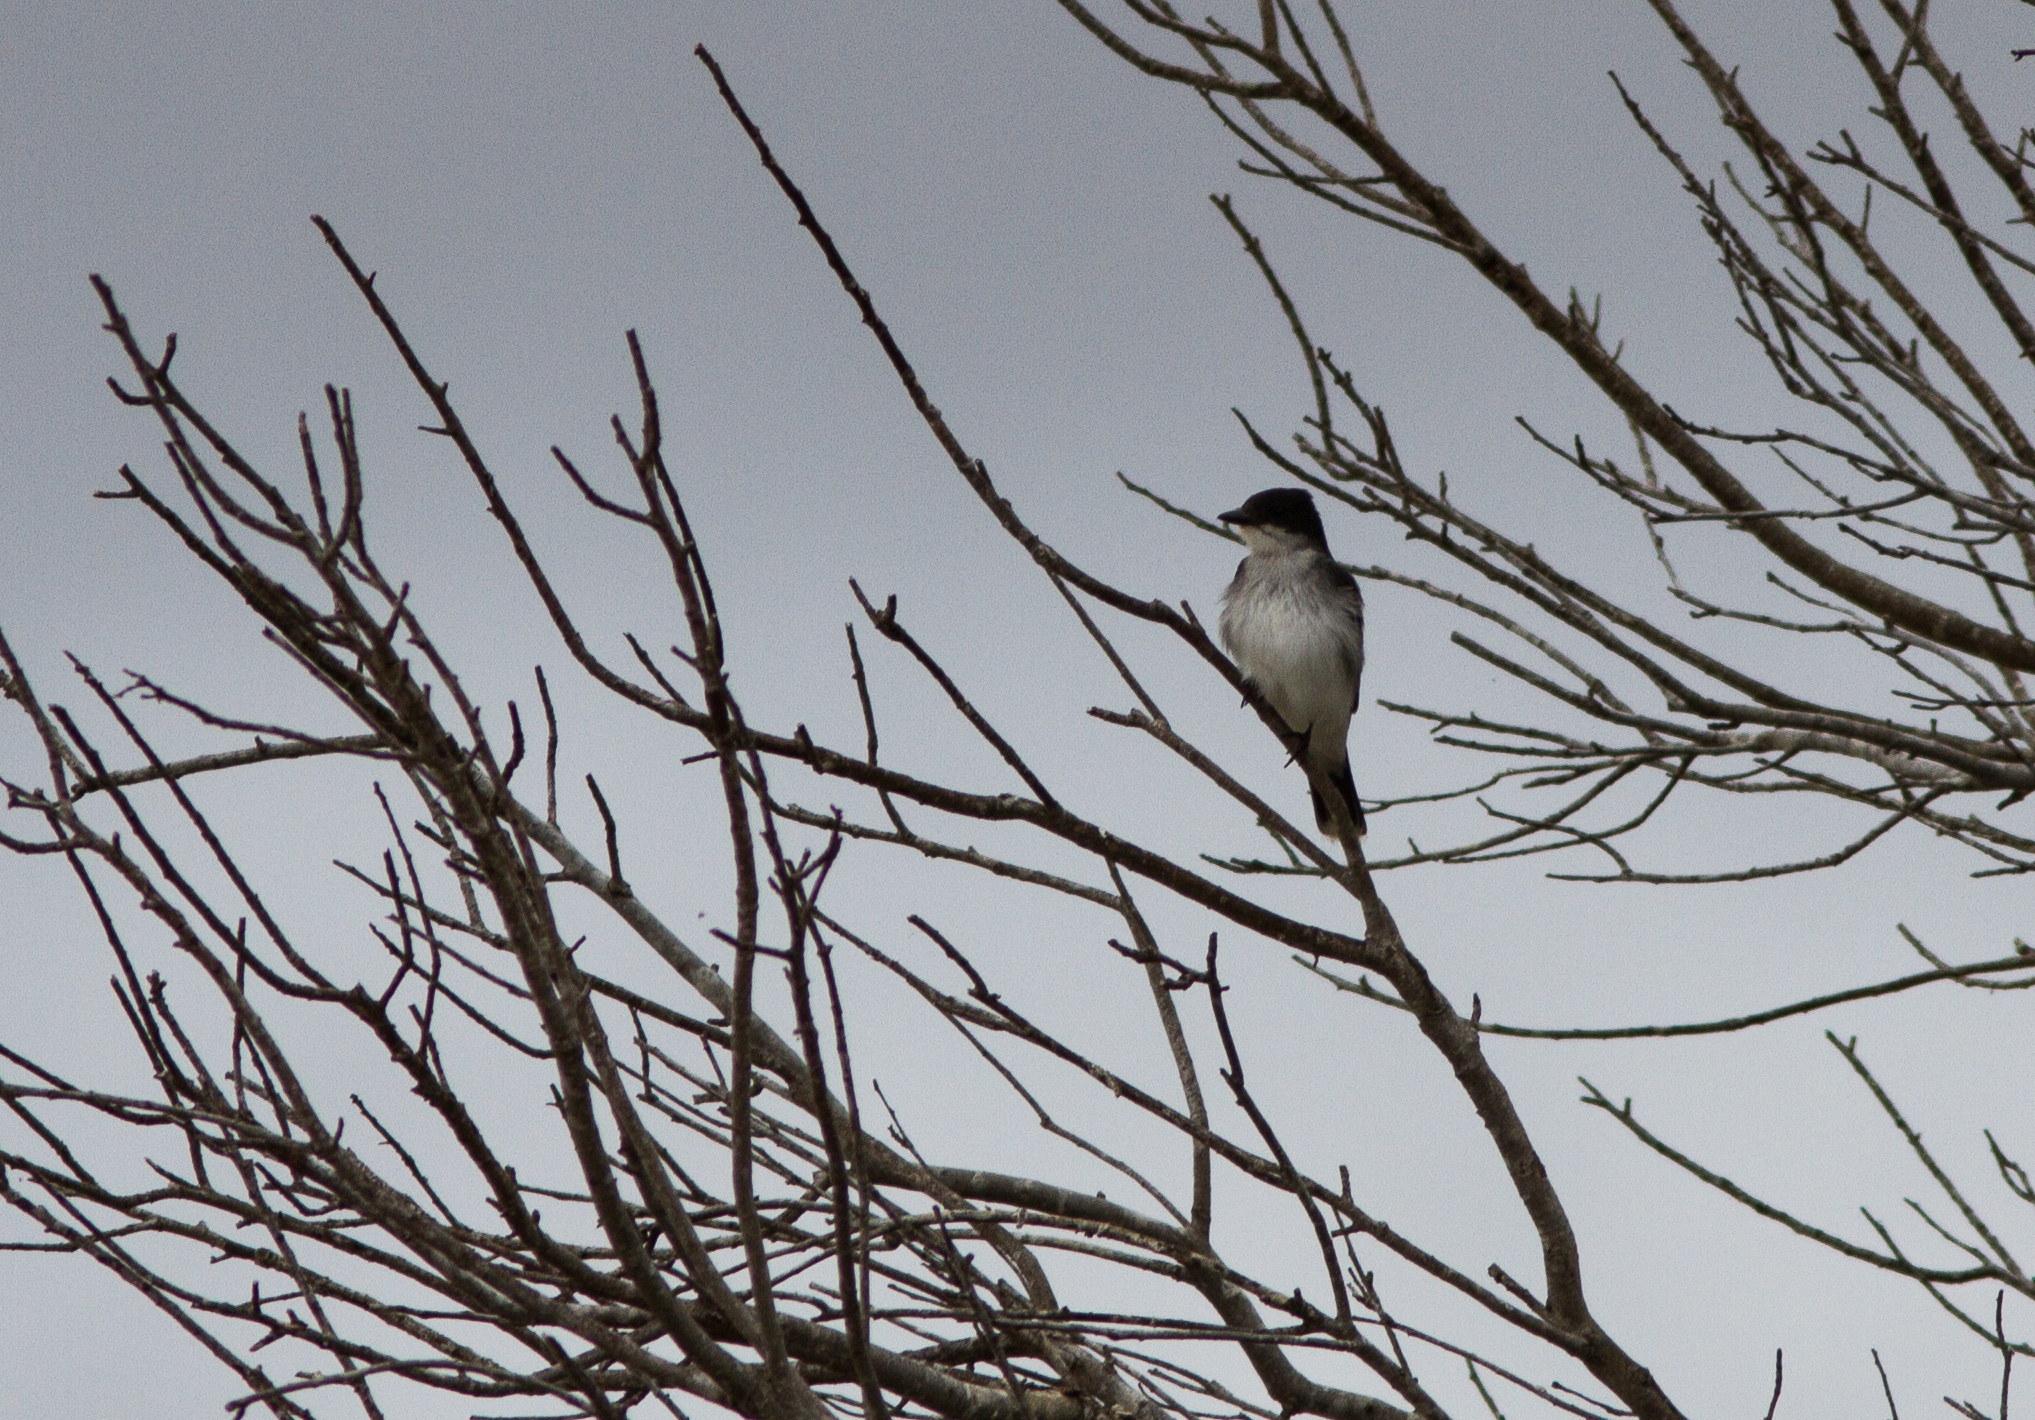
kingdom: Animalia
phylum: Chordata
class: Aves
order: Passeriformes
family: Tyrannidae
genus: Tyrannus
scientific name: Tyrannus tyrannus
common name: Eastern kingbird
